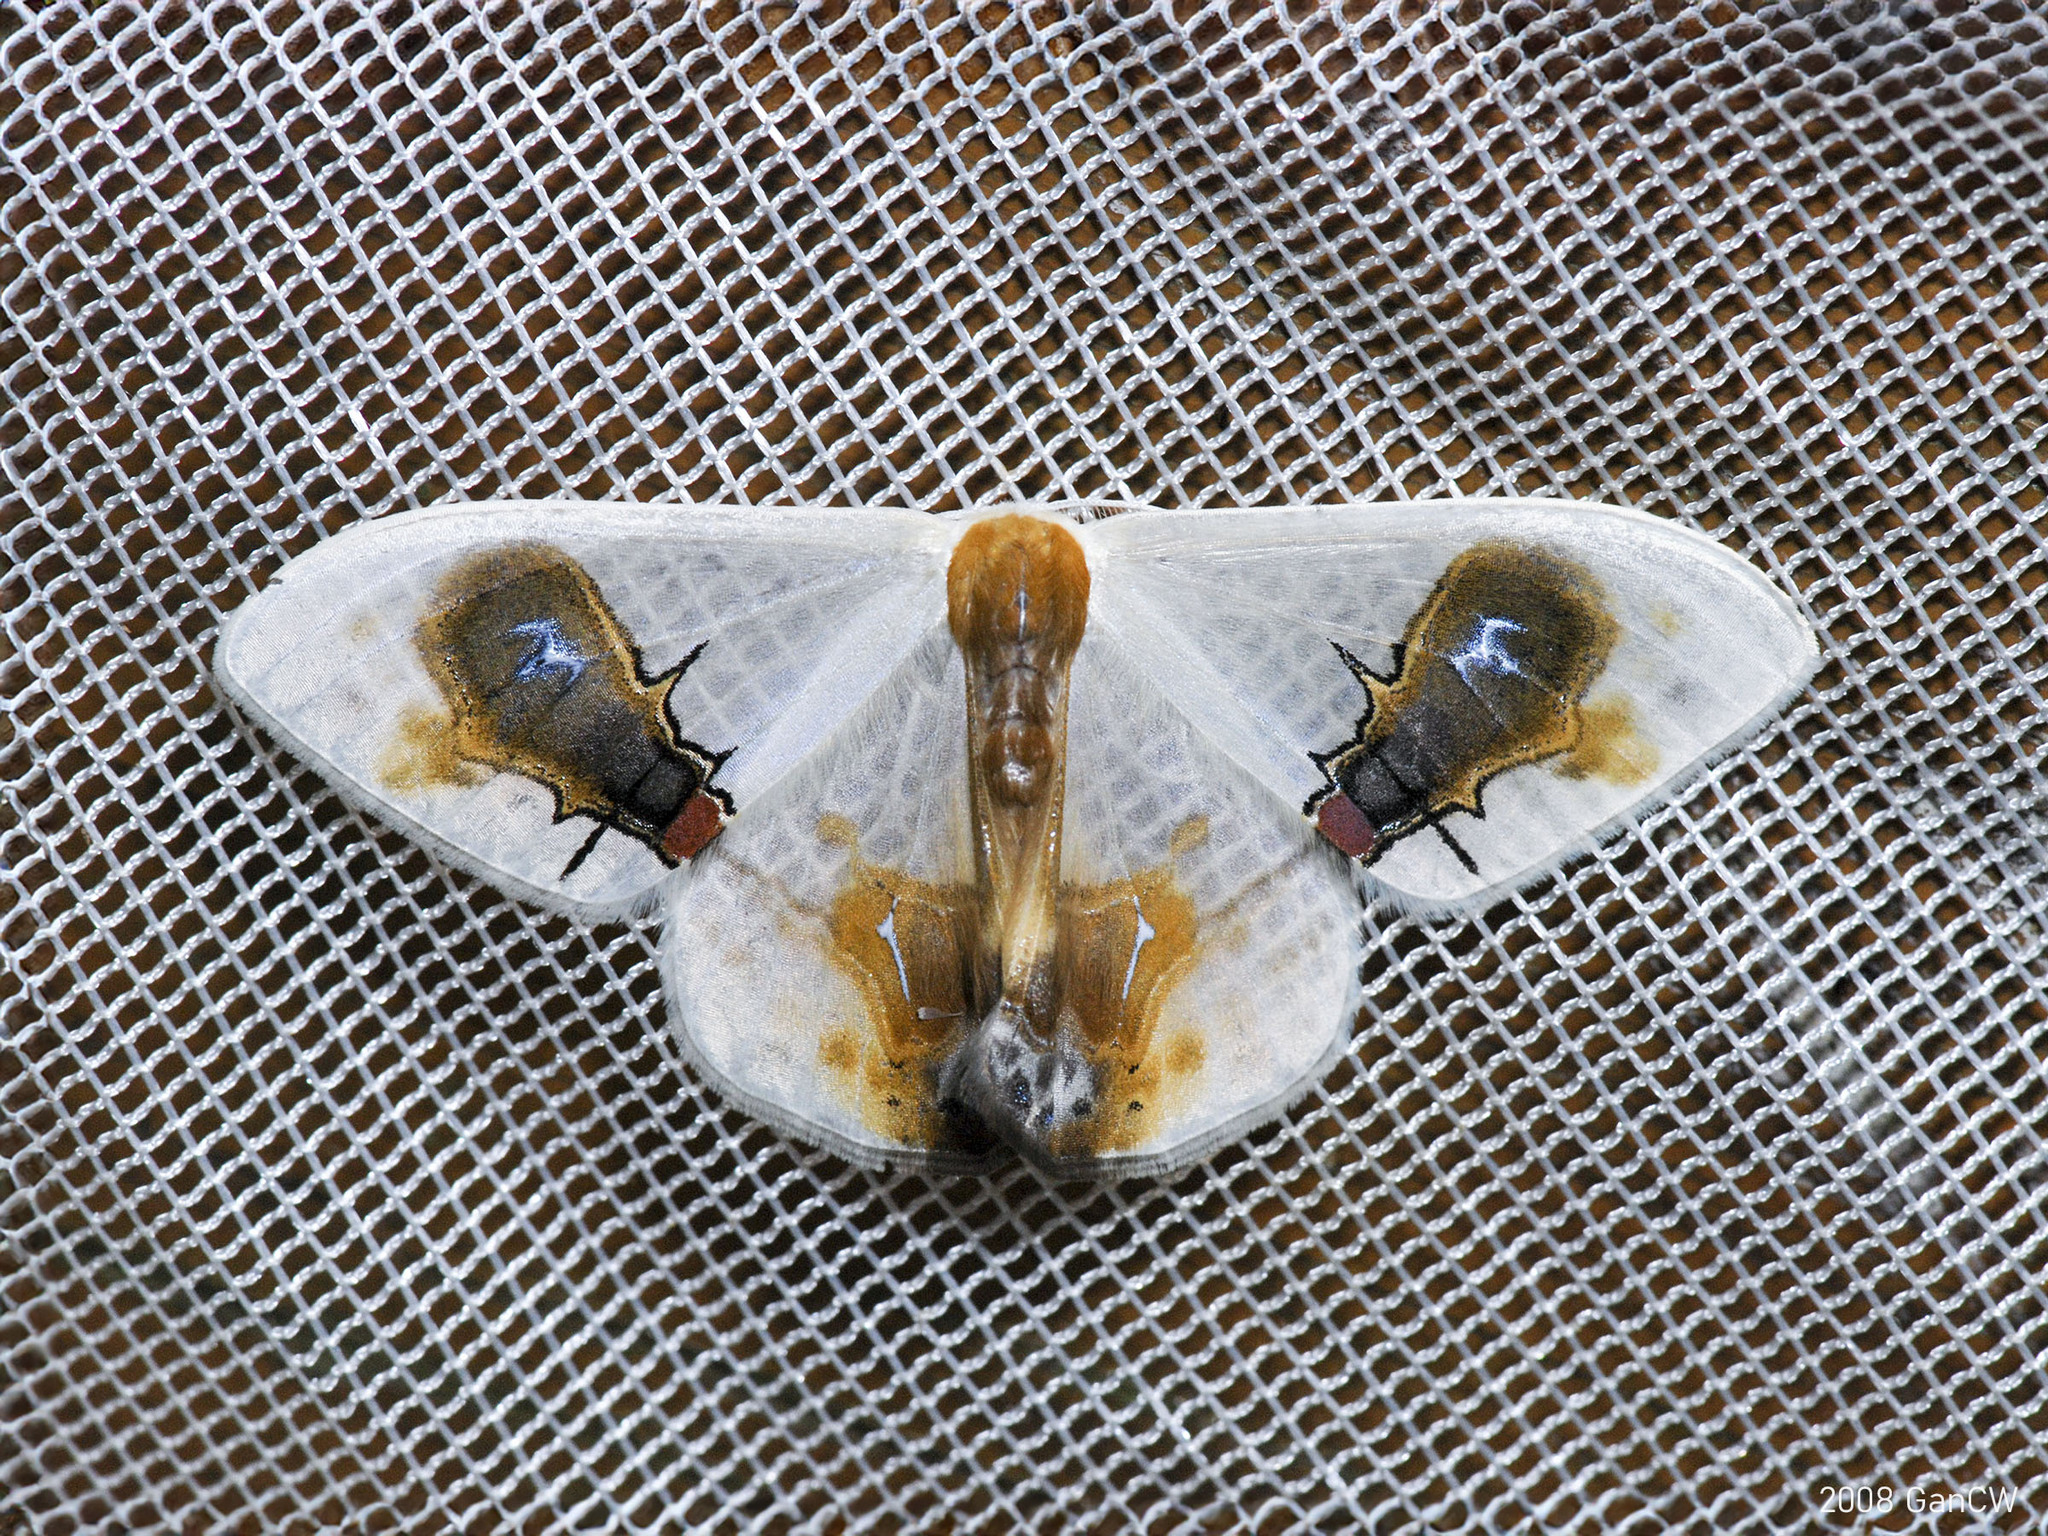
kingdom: Animalia
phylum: Arthropoda
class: Insecta
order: Lepidoptera
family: Drepanidae
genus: Macrocilix
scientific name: Macrocilix maia
